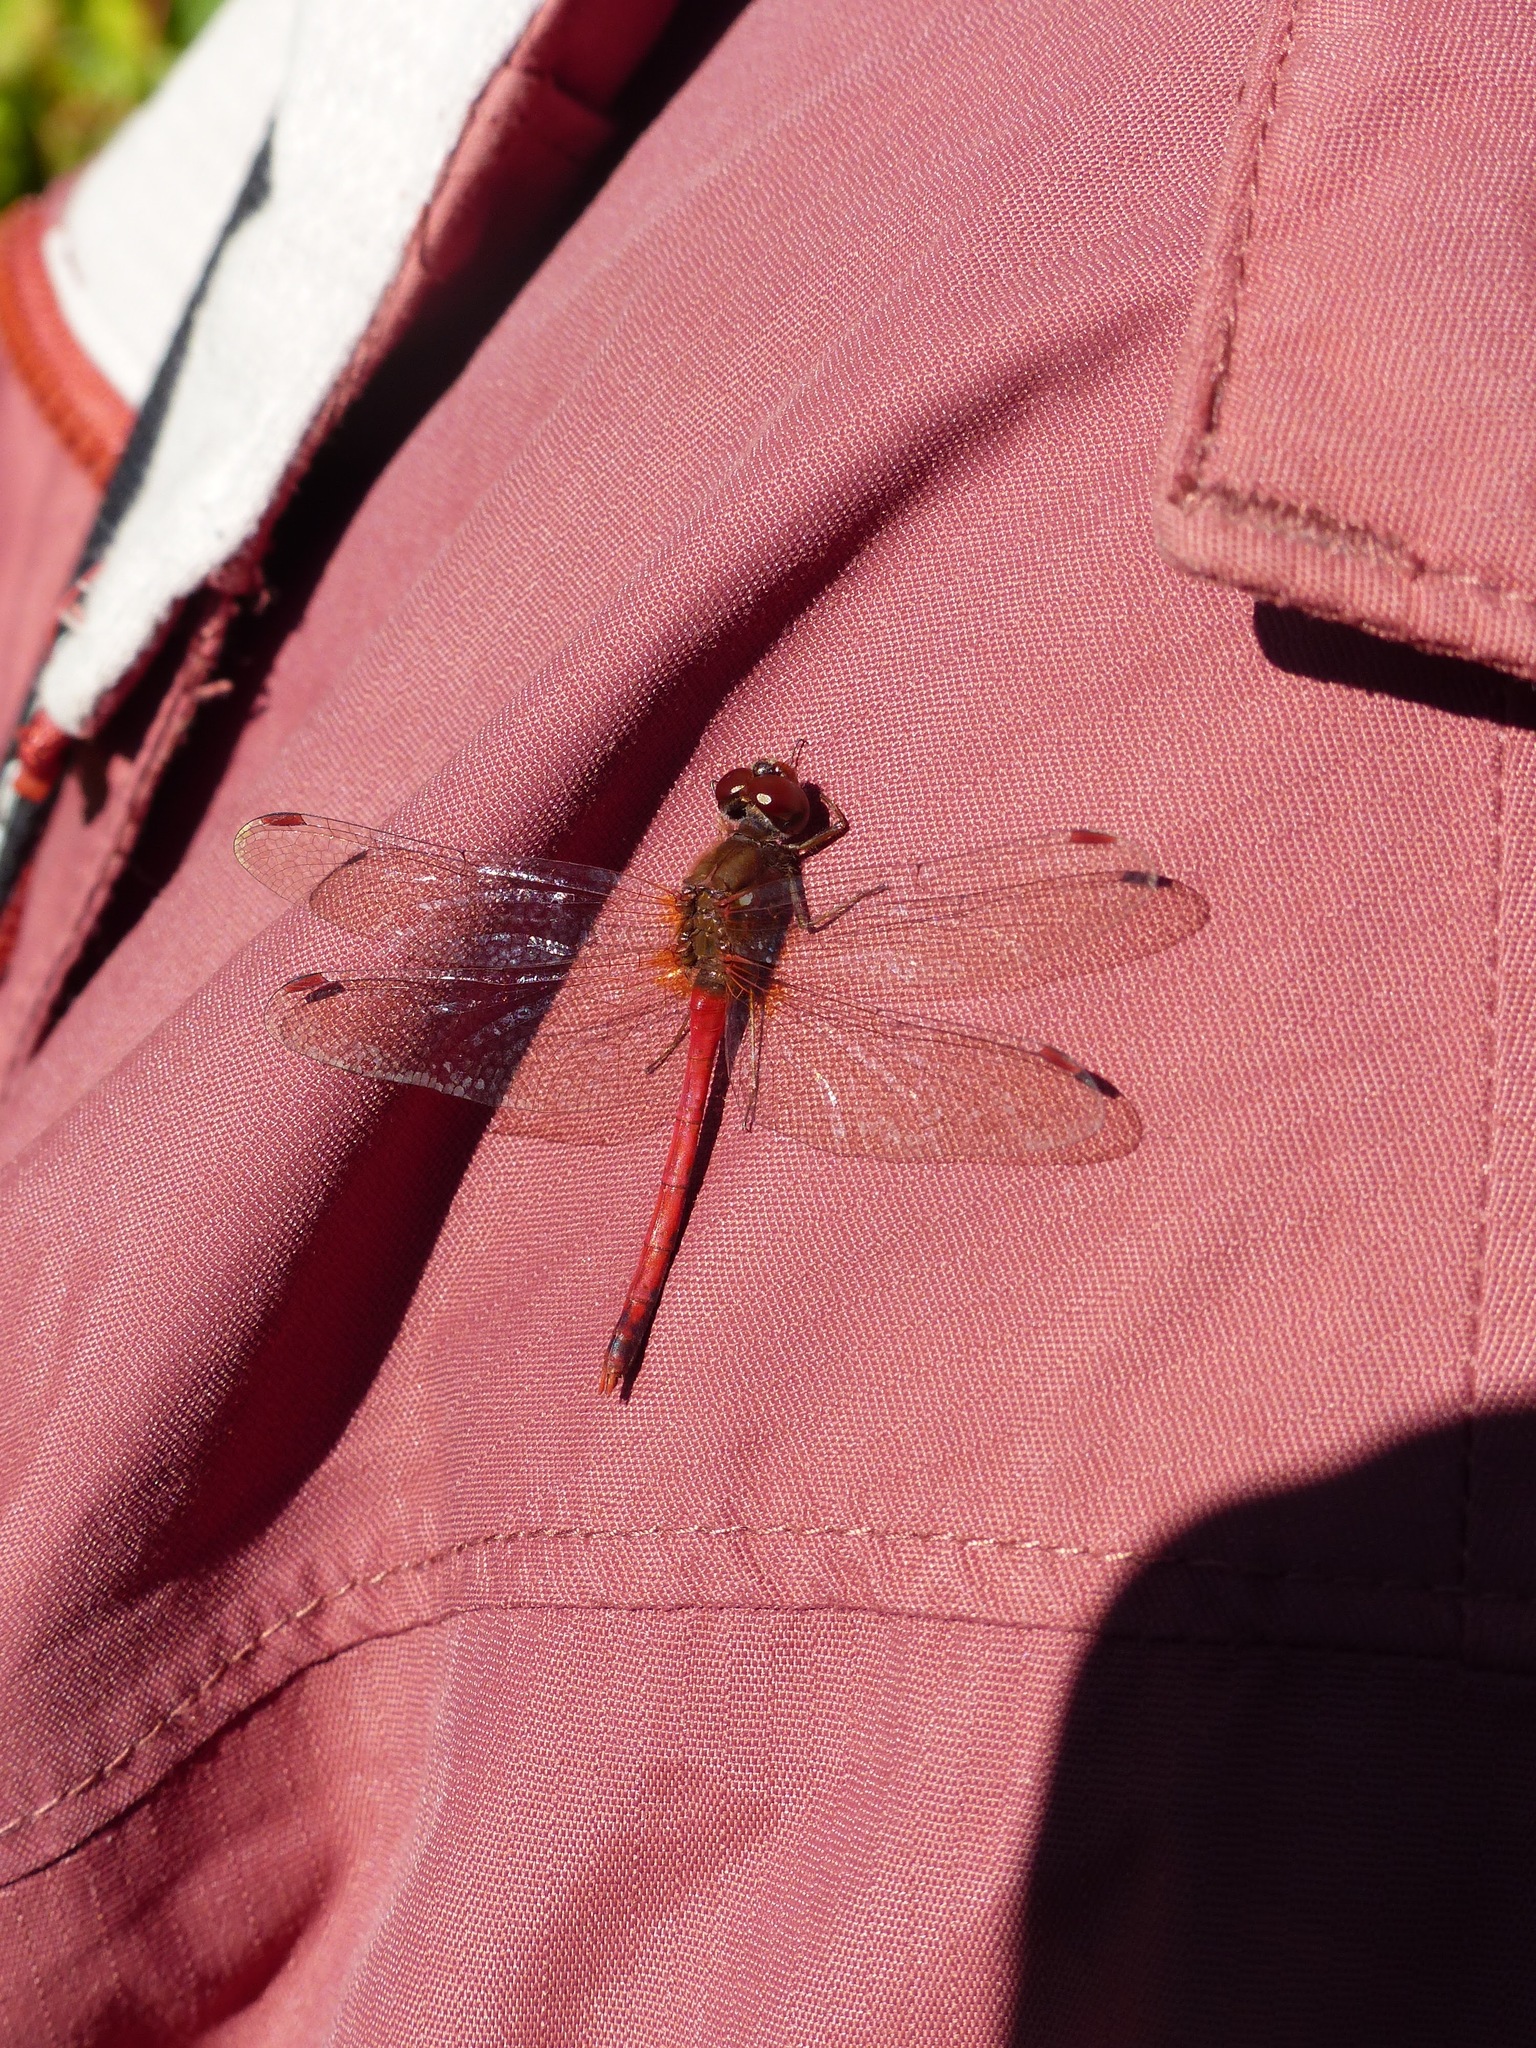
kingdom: Animalia
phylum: Arthropoda
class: Insecta
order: Odonata
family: Libellulidae
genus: Sympetrum
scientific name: Sympetrum vicinum
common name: Autumn meadowhawk
